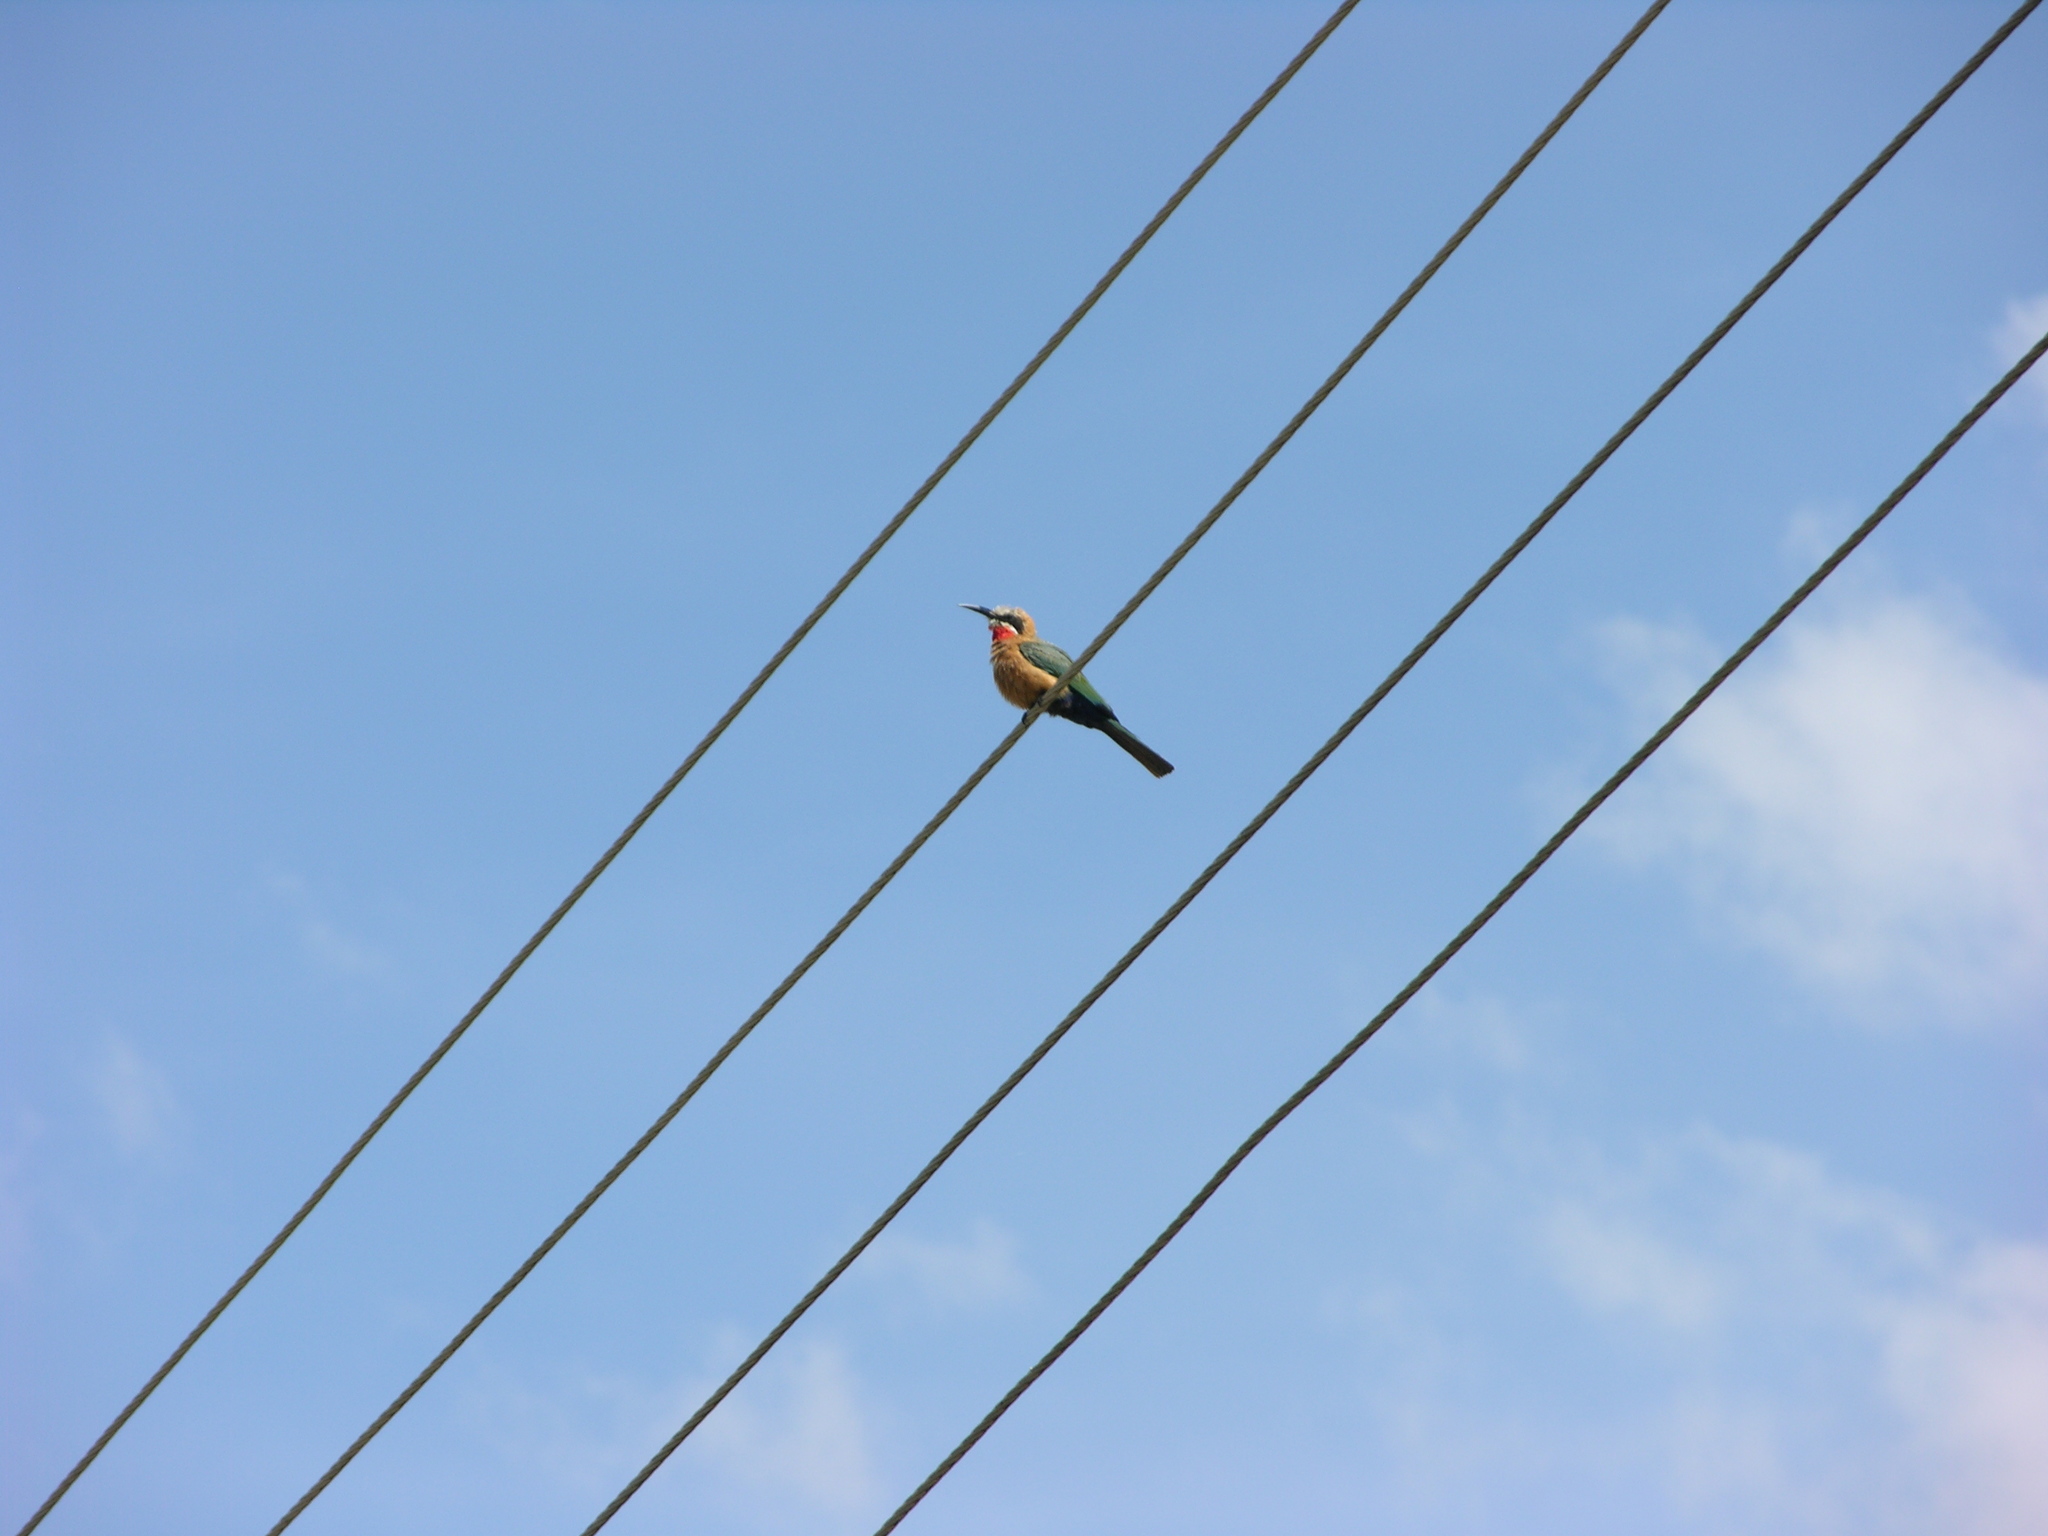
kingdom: Animalia
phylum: Chordata
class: Aves
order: Coraciiformes
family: Meropidae
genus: Merops
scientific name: Merops bullockoides
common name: White-fronted bee-eater
